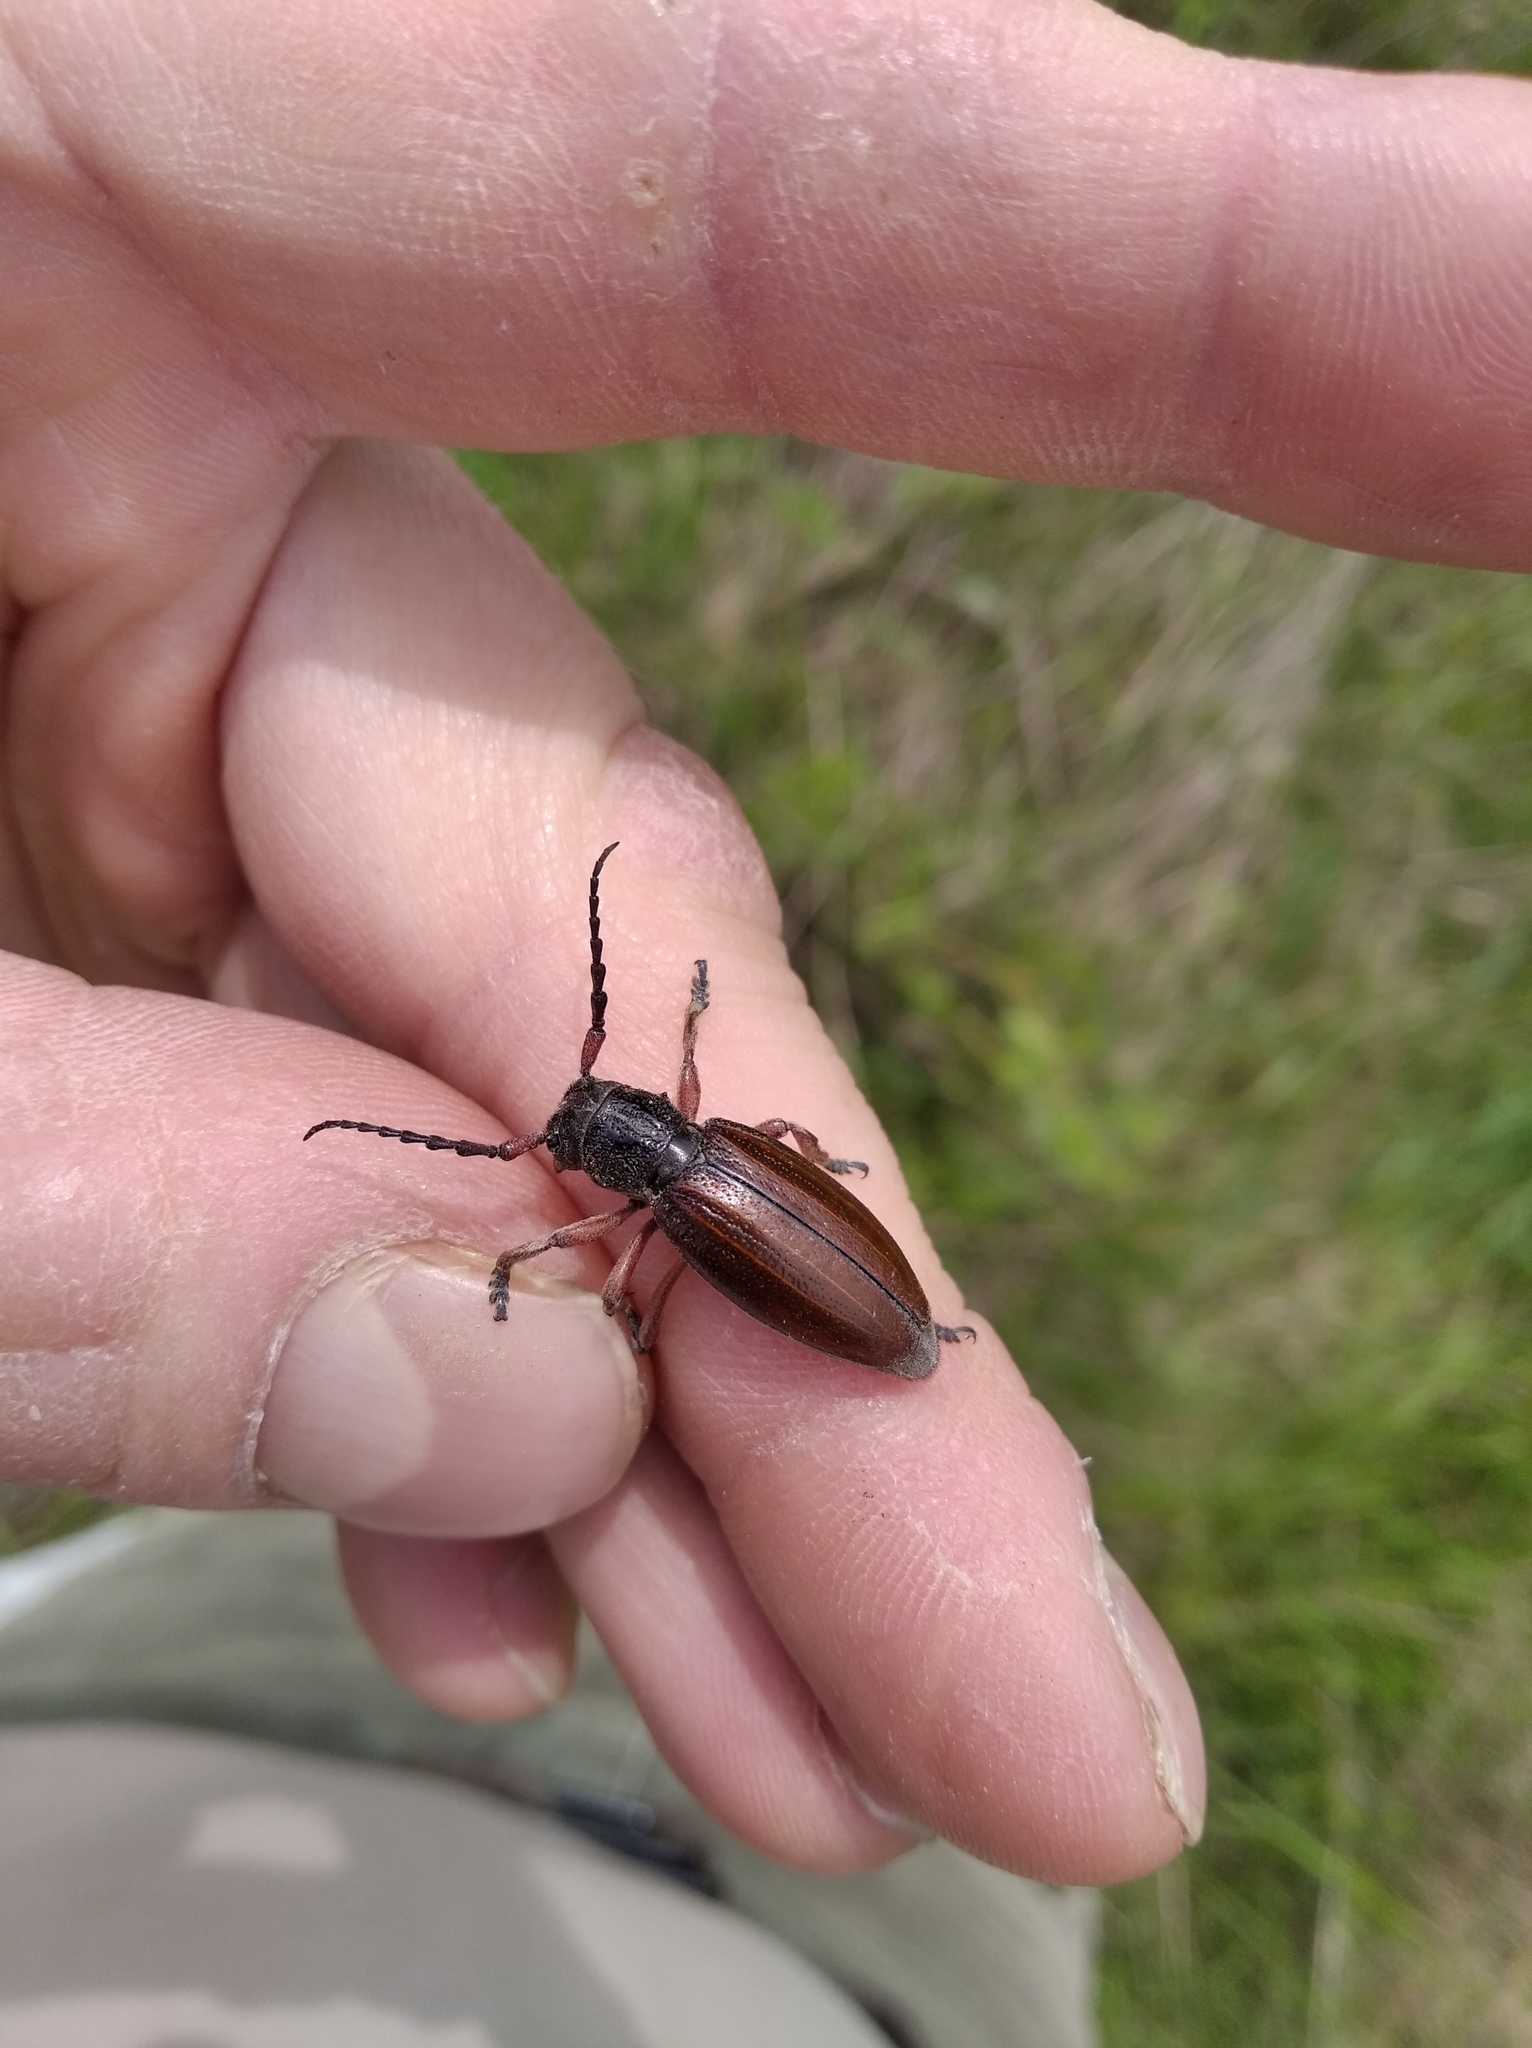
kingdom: Animalia
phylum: Arthropoda
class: Insecta
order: Coleoptera
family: Cerambycidae
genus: Dorcadion
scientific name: Dorcadion fulvum
